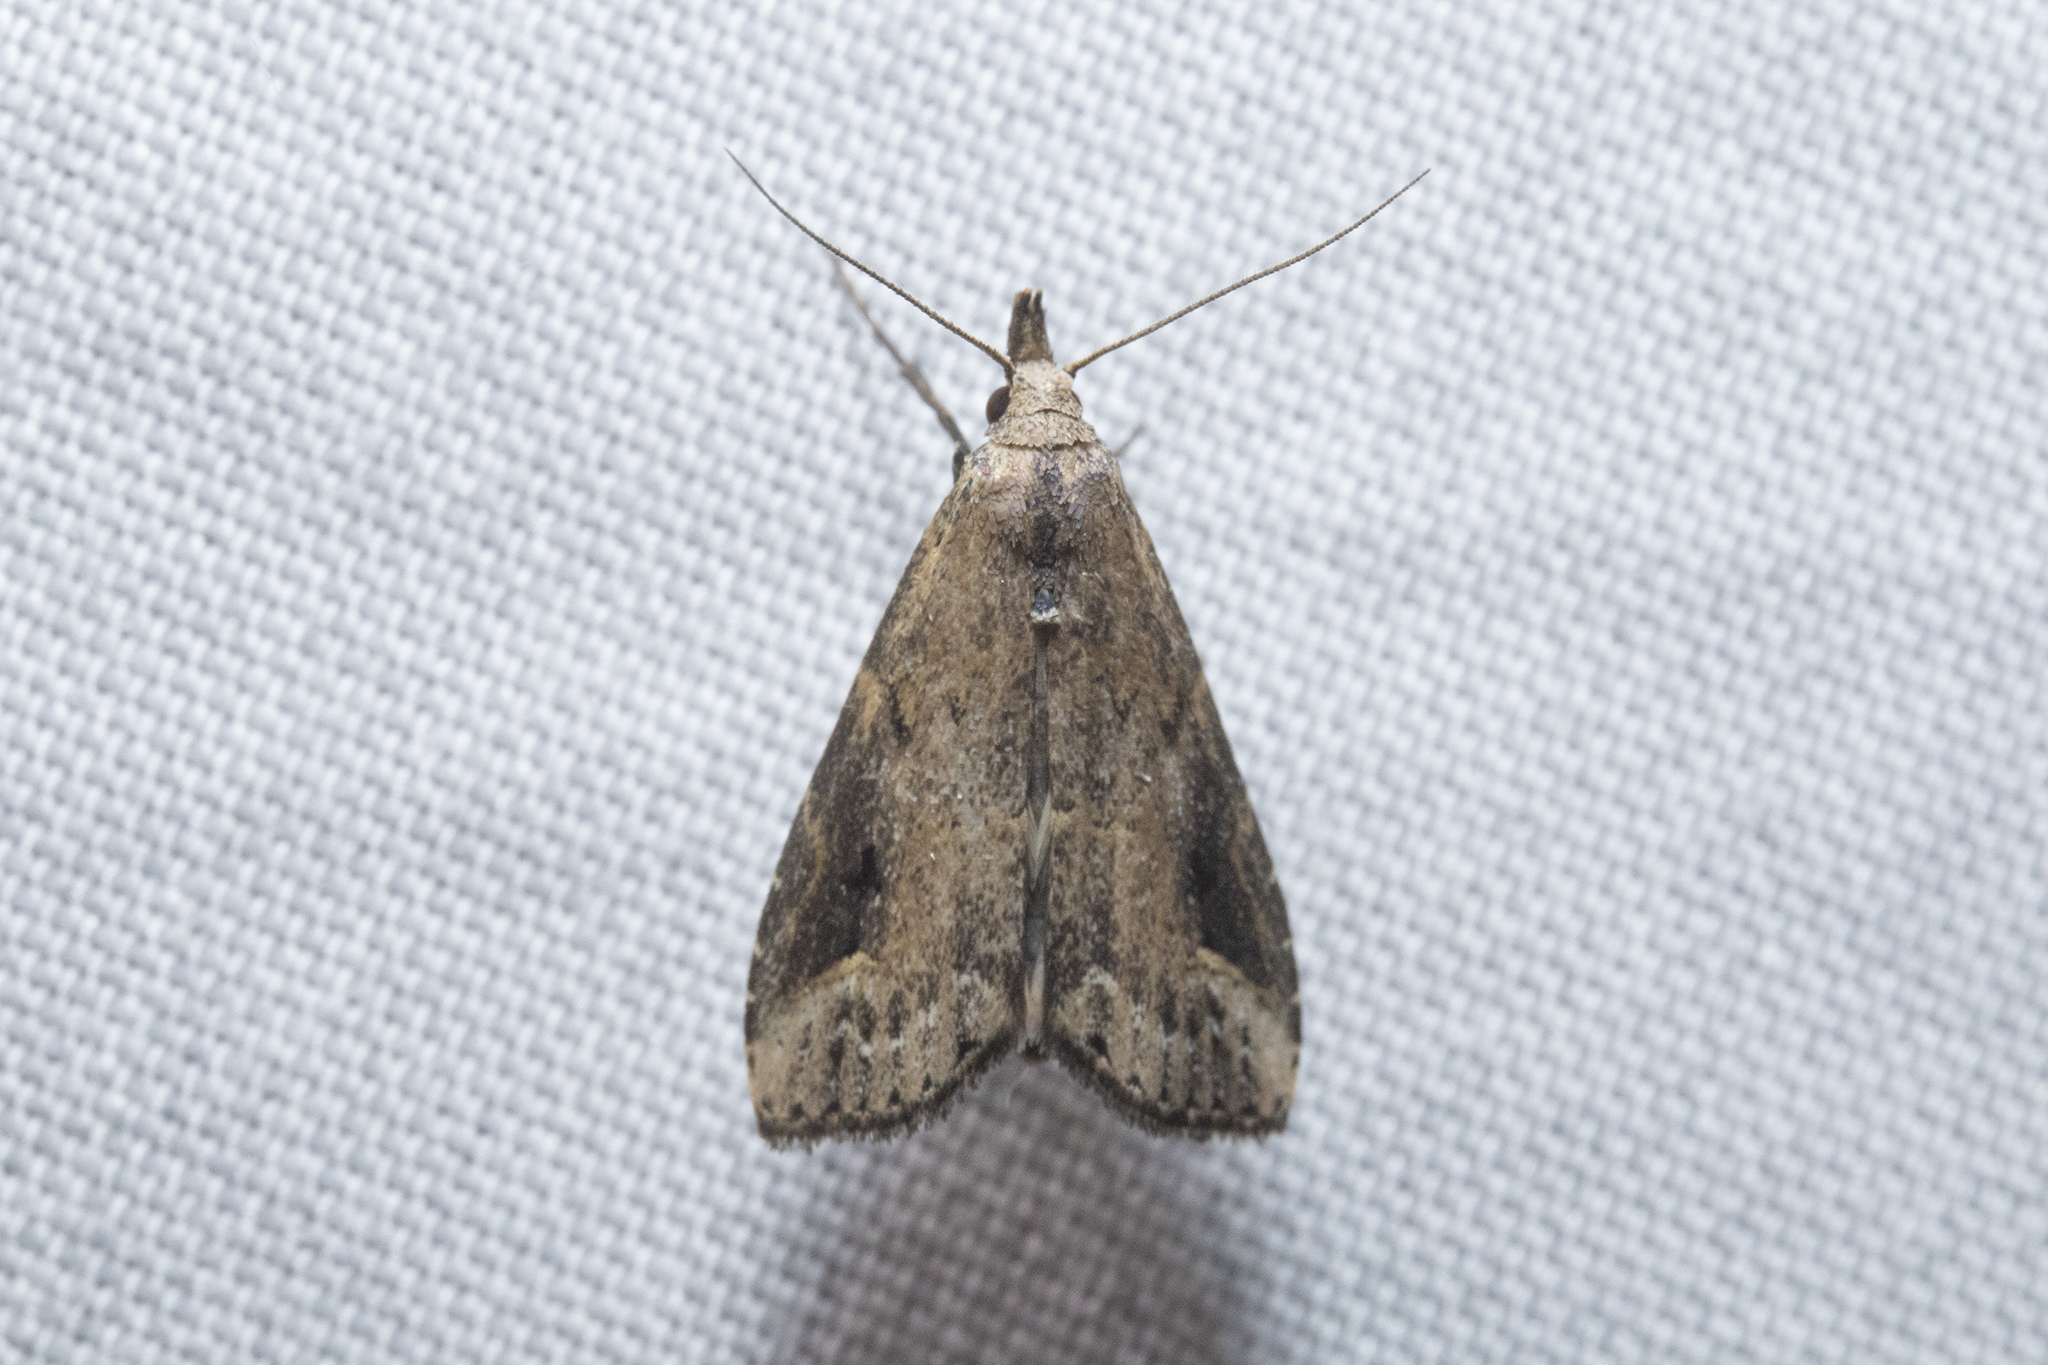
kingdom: Animalia
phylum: Arthropoda
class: Insecta
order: Lepidoptera
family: Erebidae
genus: Schrankia
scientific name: Schrankia costaestrigalis
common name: Pinion-streaked snout
